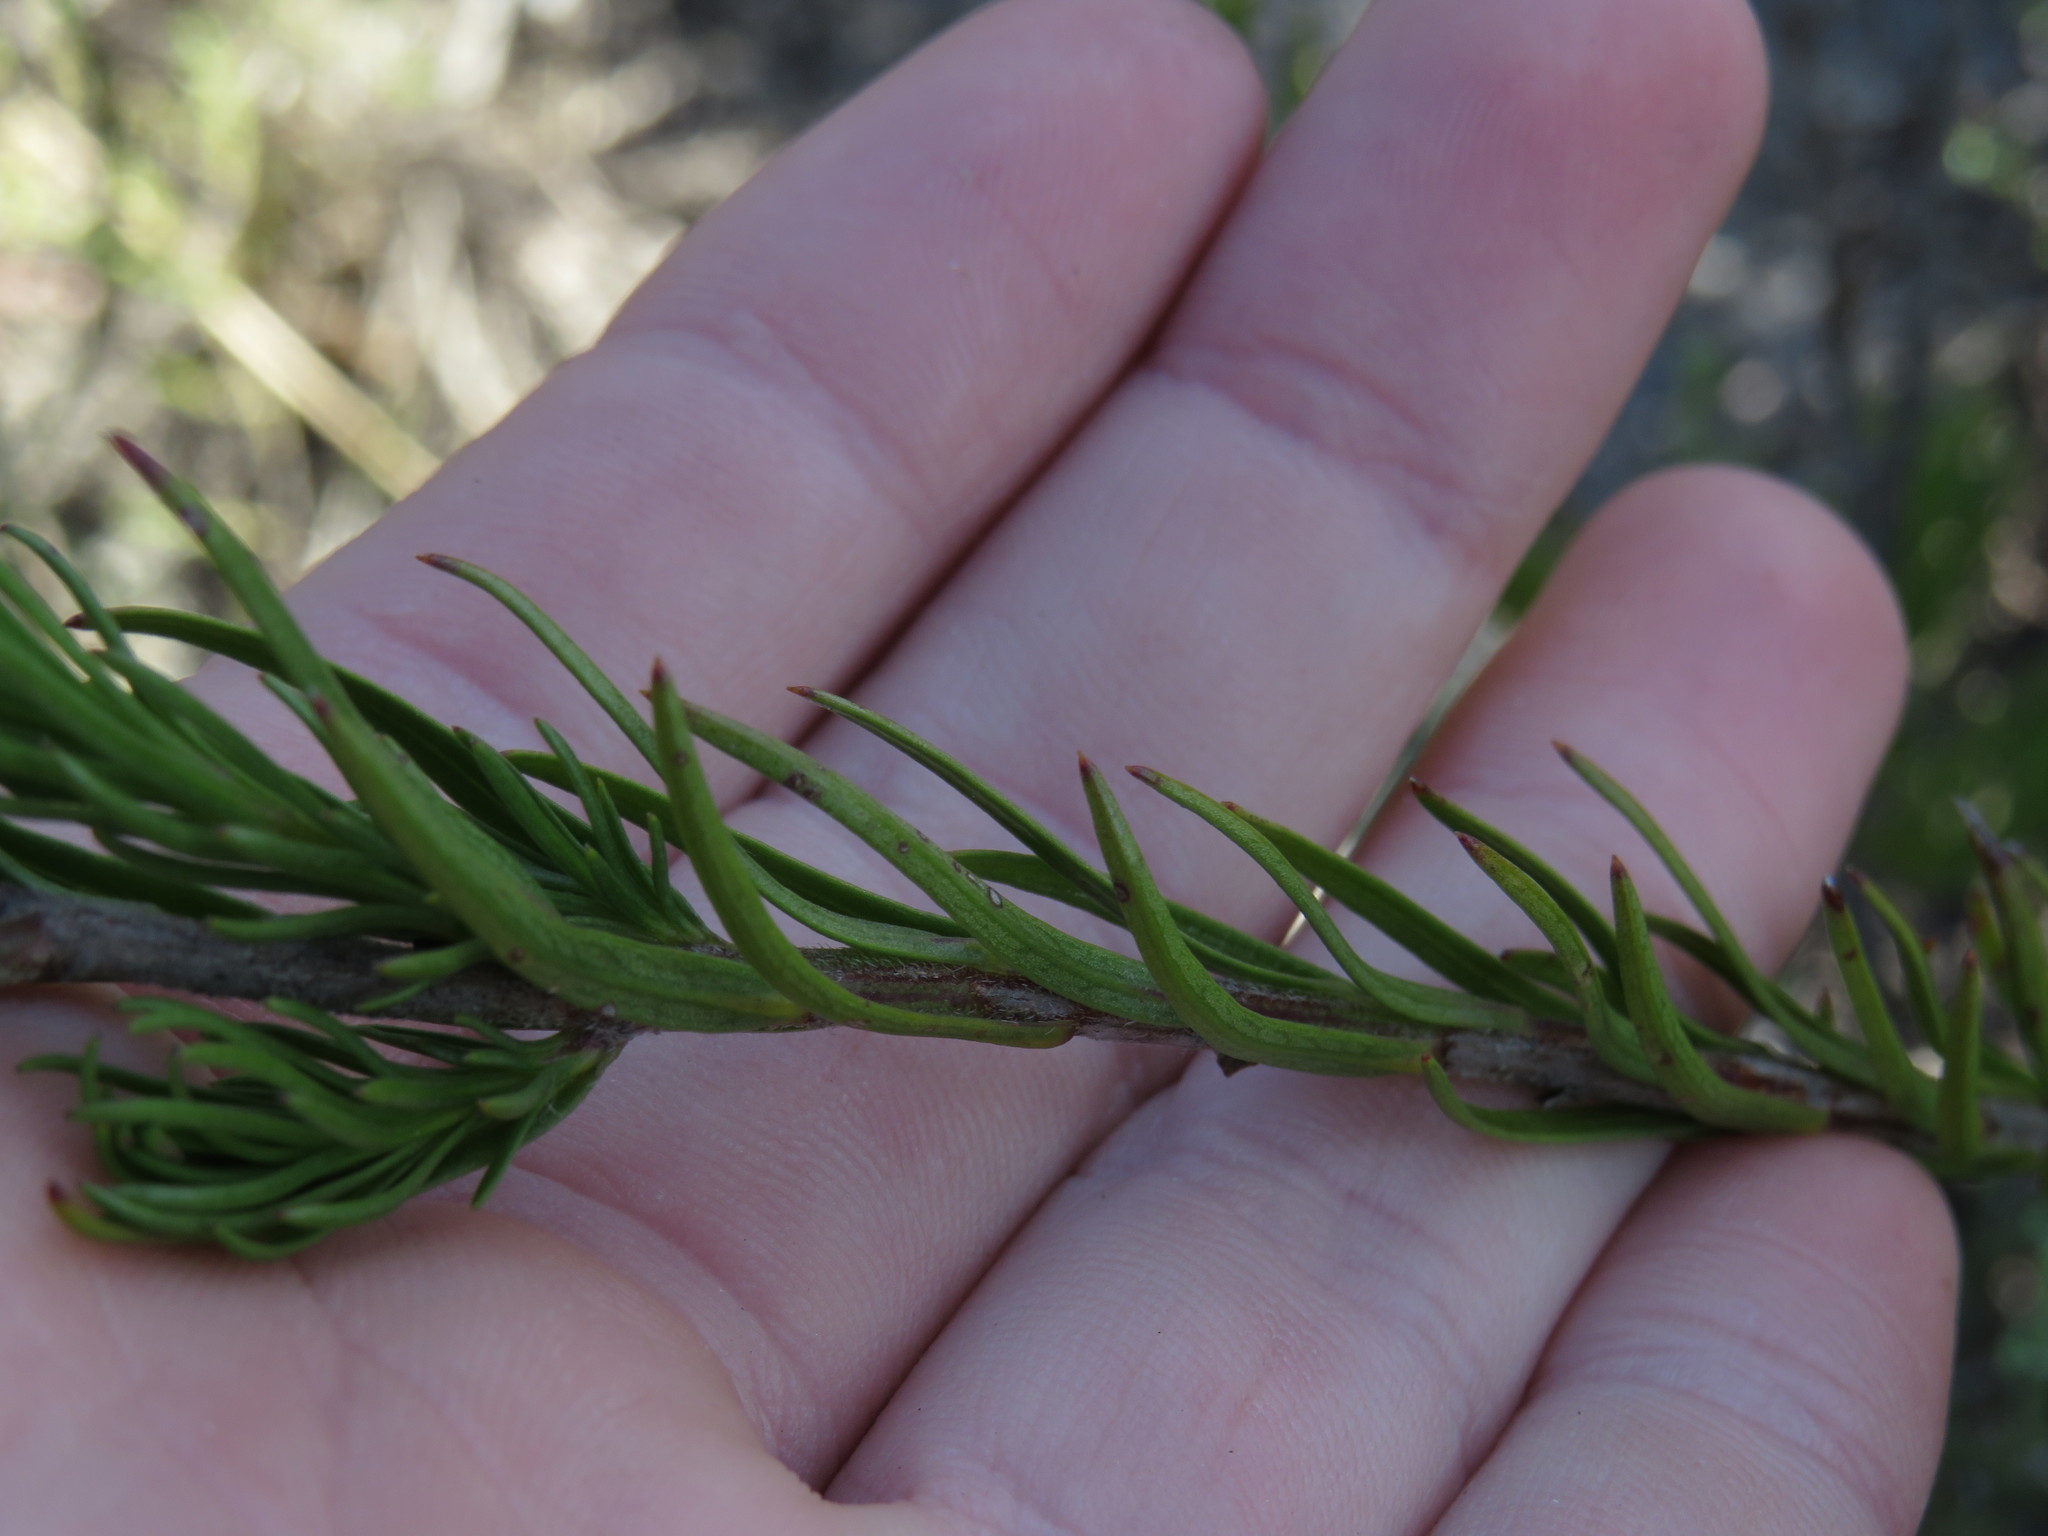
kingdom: Plantae
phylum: Tracheophyta
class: Magnoliopsida
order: Asterales
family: Campanulaceae
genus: Lobelia
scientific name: Lobelia pinifolia
